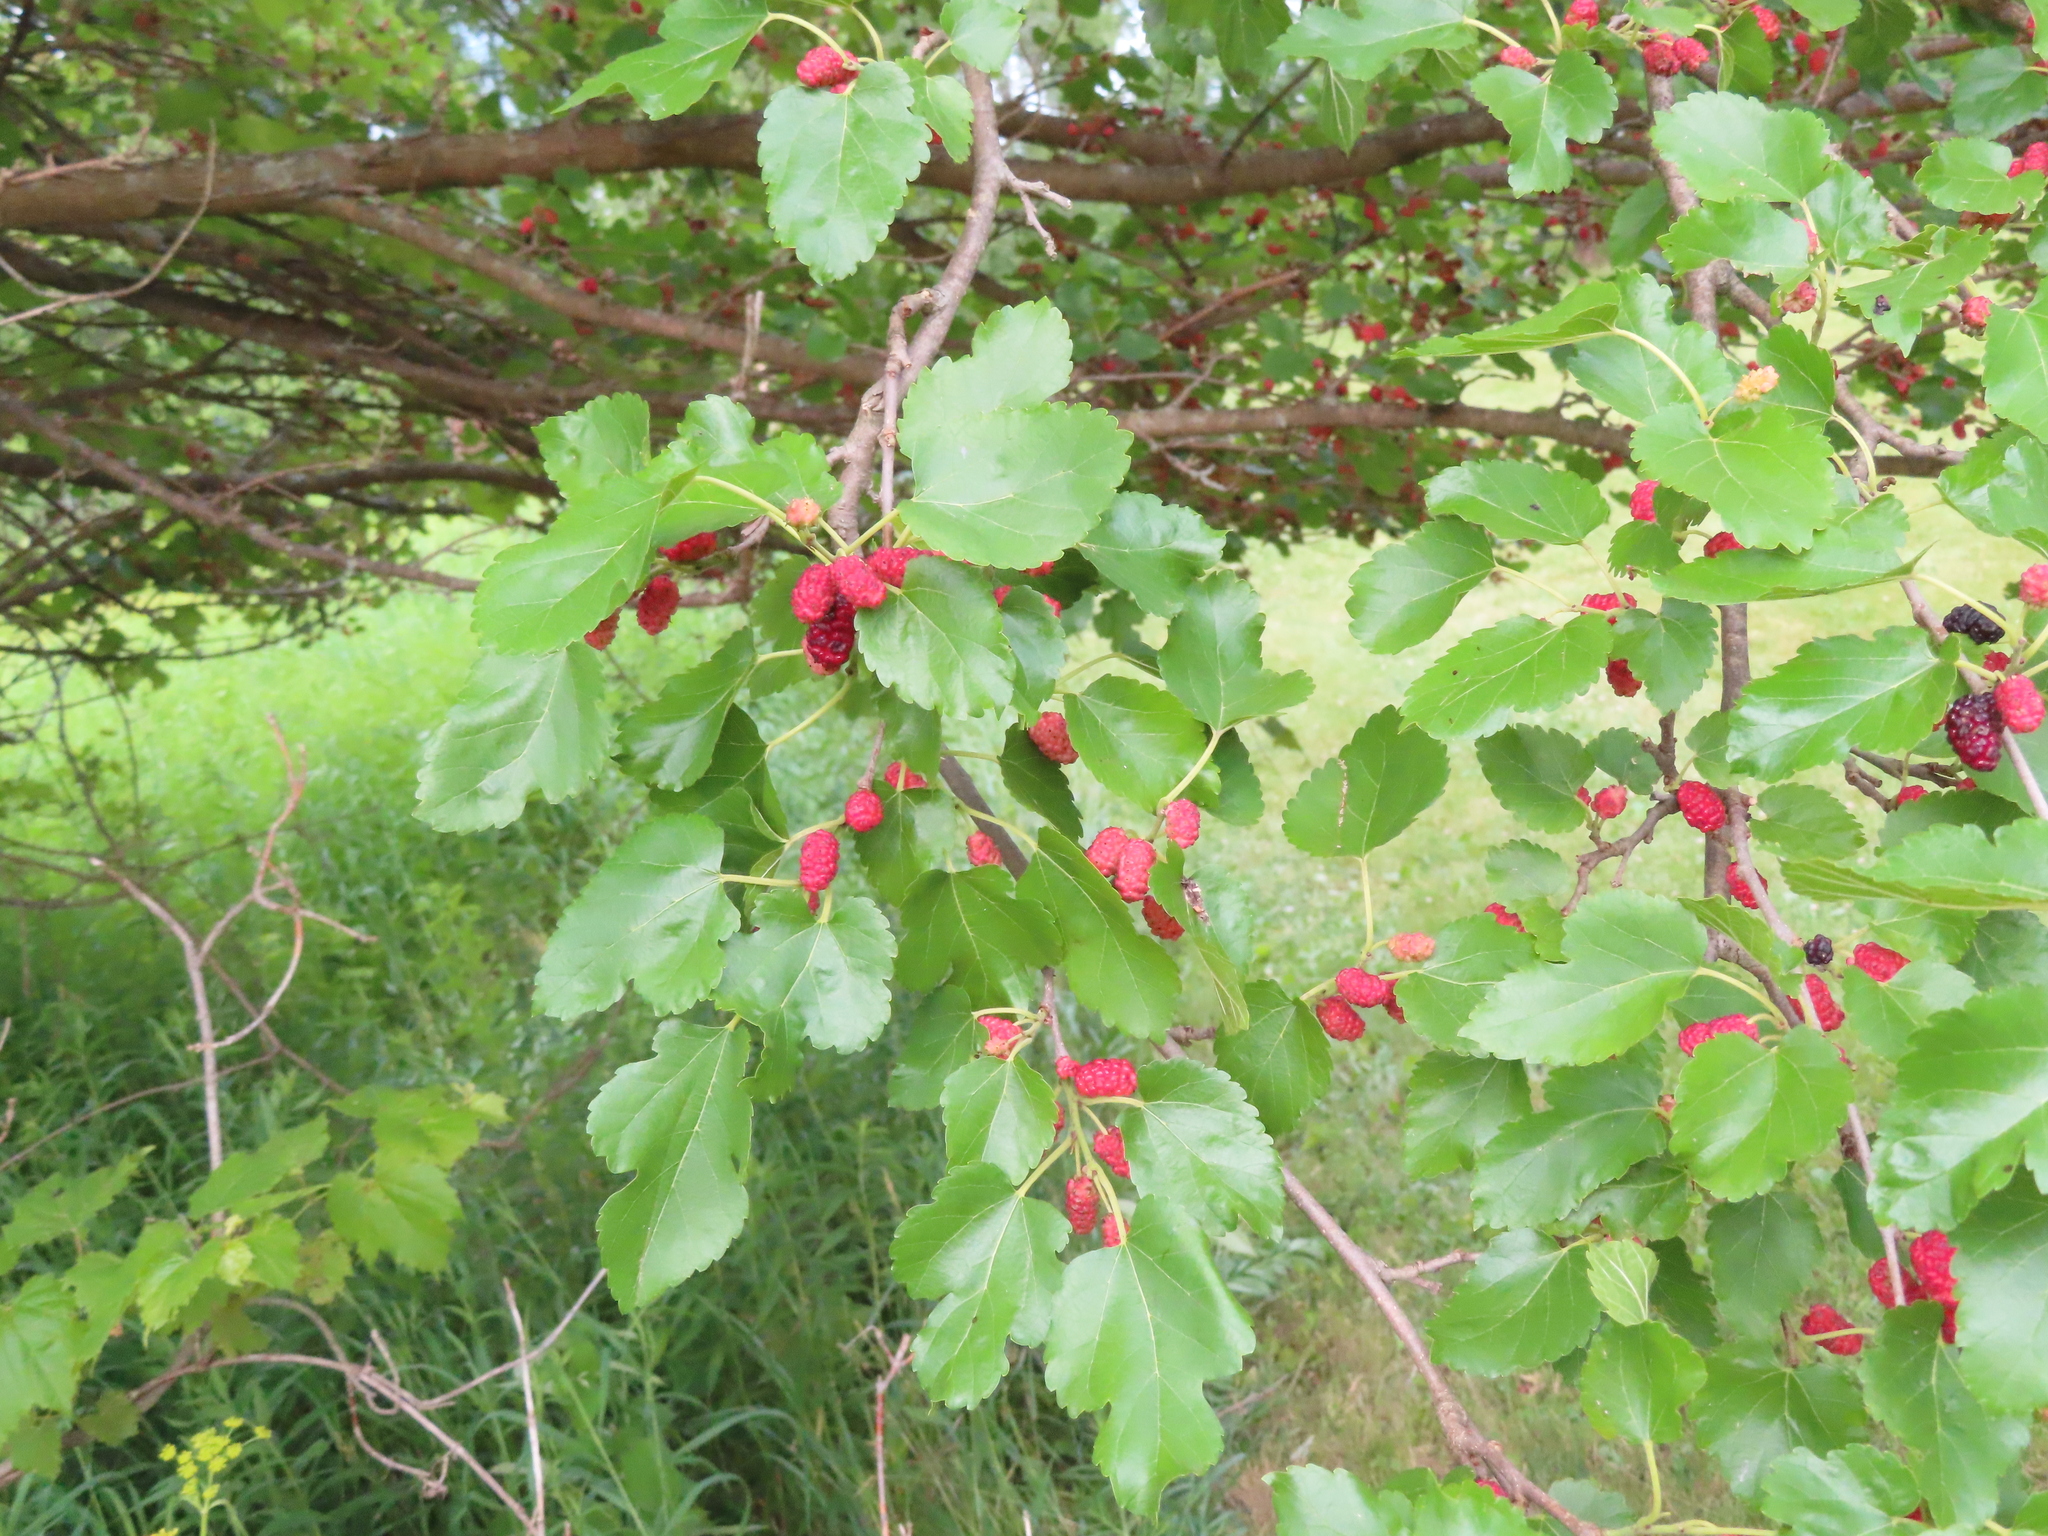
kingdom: Plantae
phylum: Tracheophyta
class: Magnoliopsida
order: Rosales
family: Moraceae
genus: Morus
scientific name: Morus alba
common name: White mulberry
